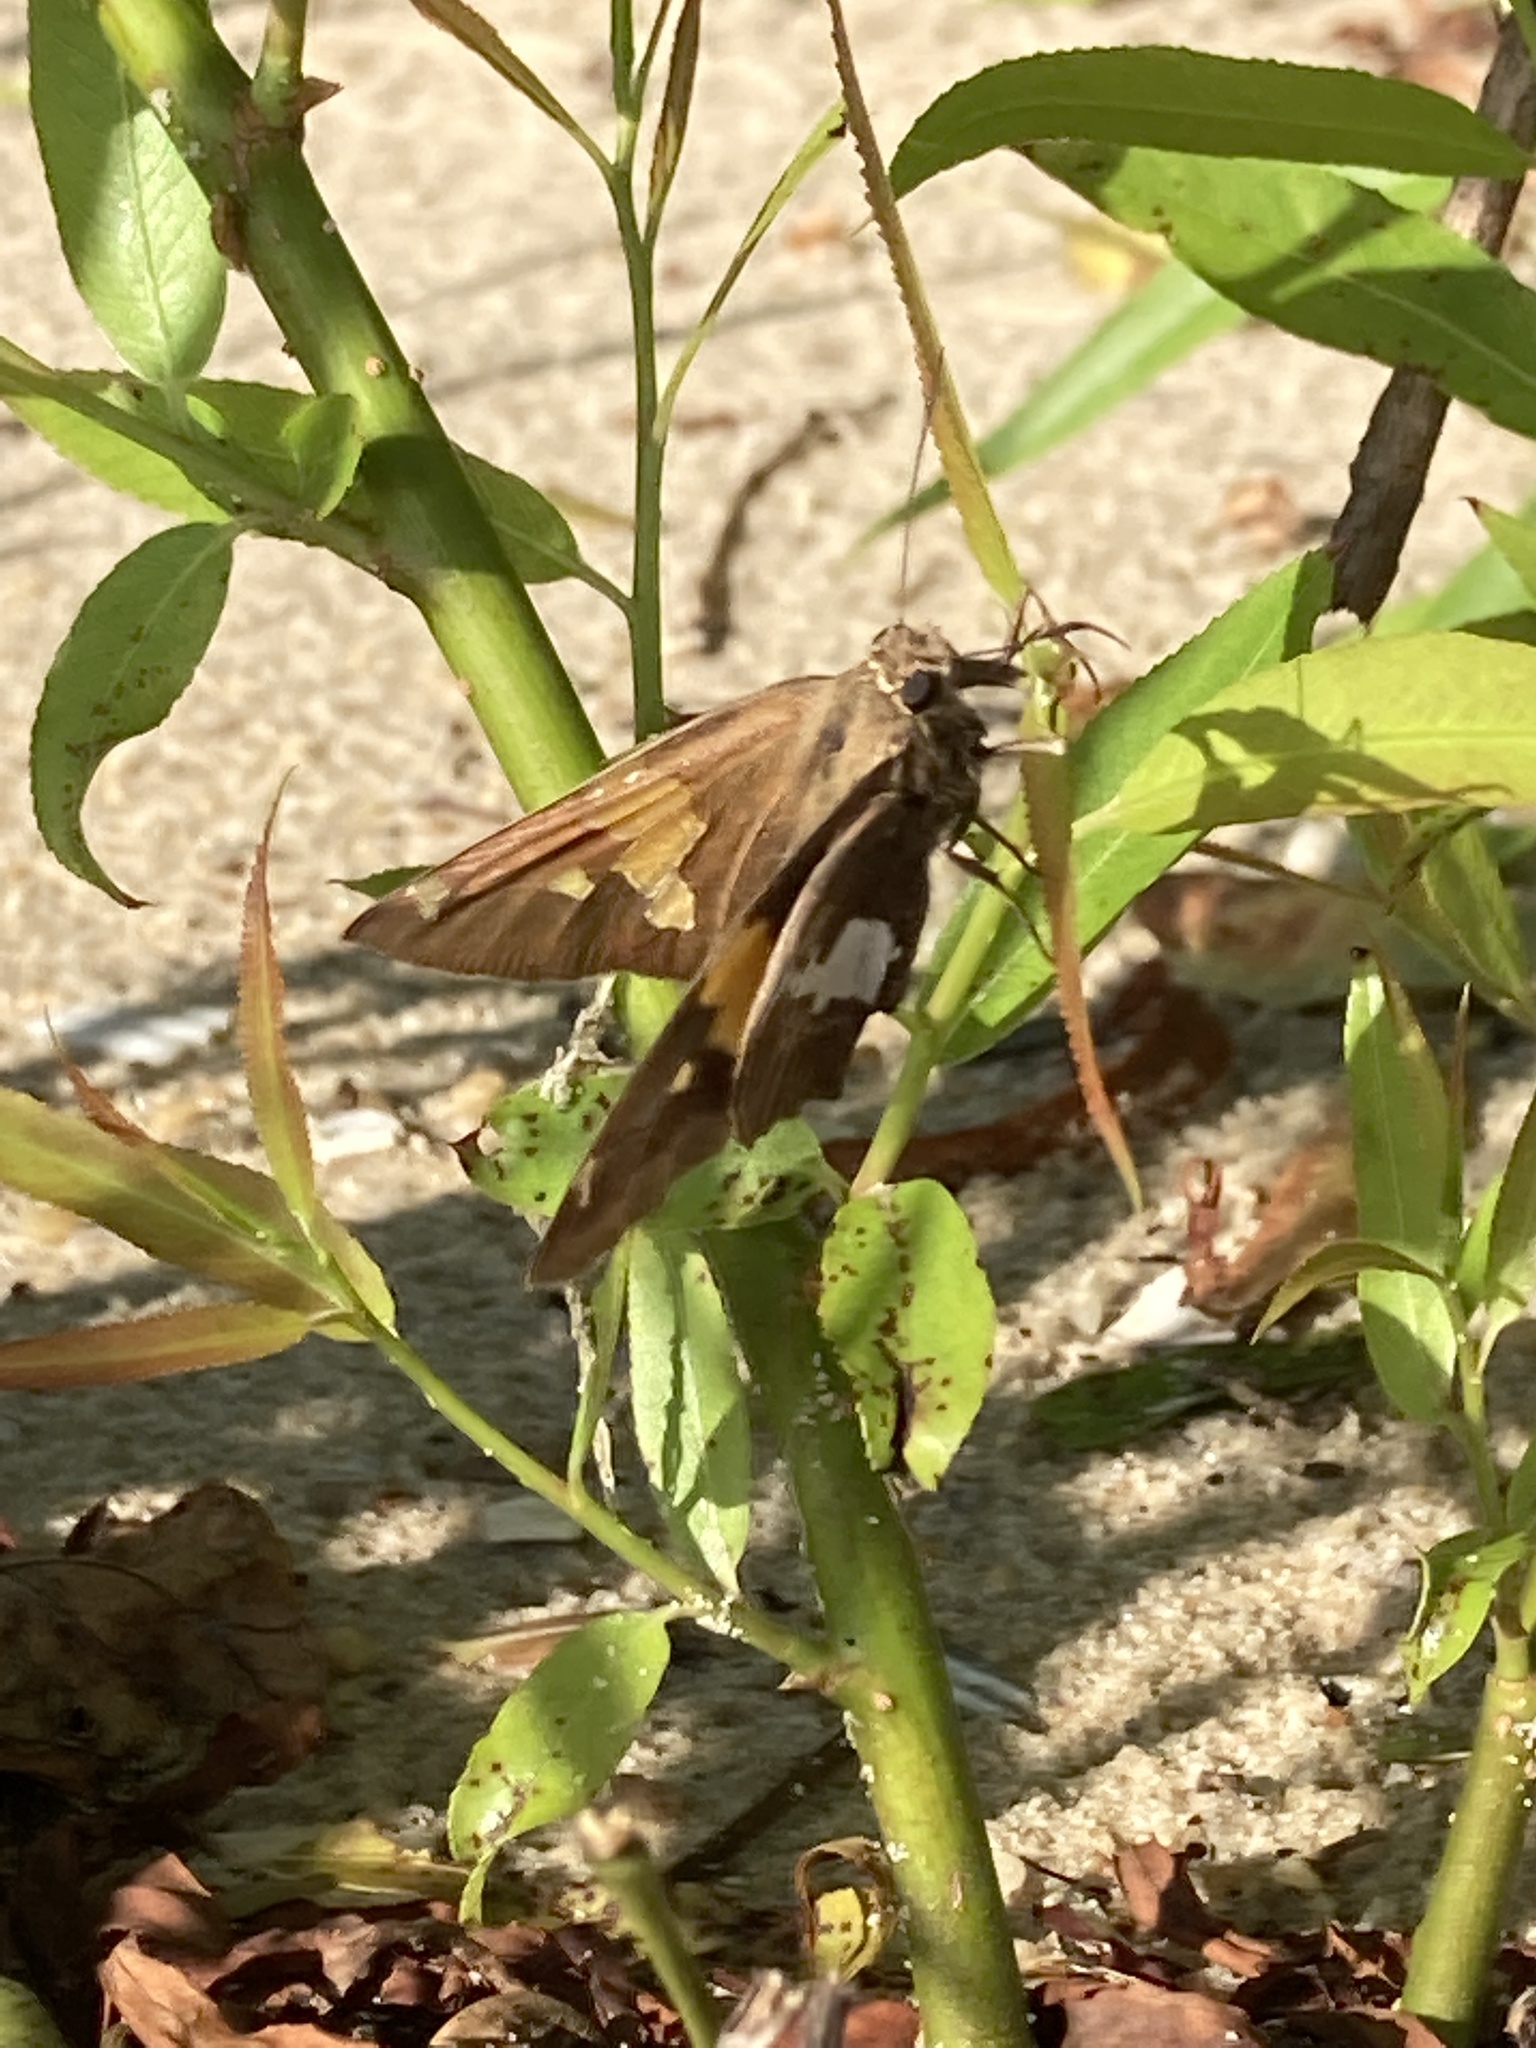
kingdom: Animalia
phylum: Arthropoda
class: Insecta
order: Lepidoptera
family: Hesperiidae
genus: Epargyreus
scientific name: Epargyreus clarus
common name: Silver-spotted skipper
